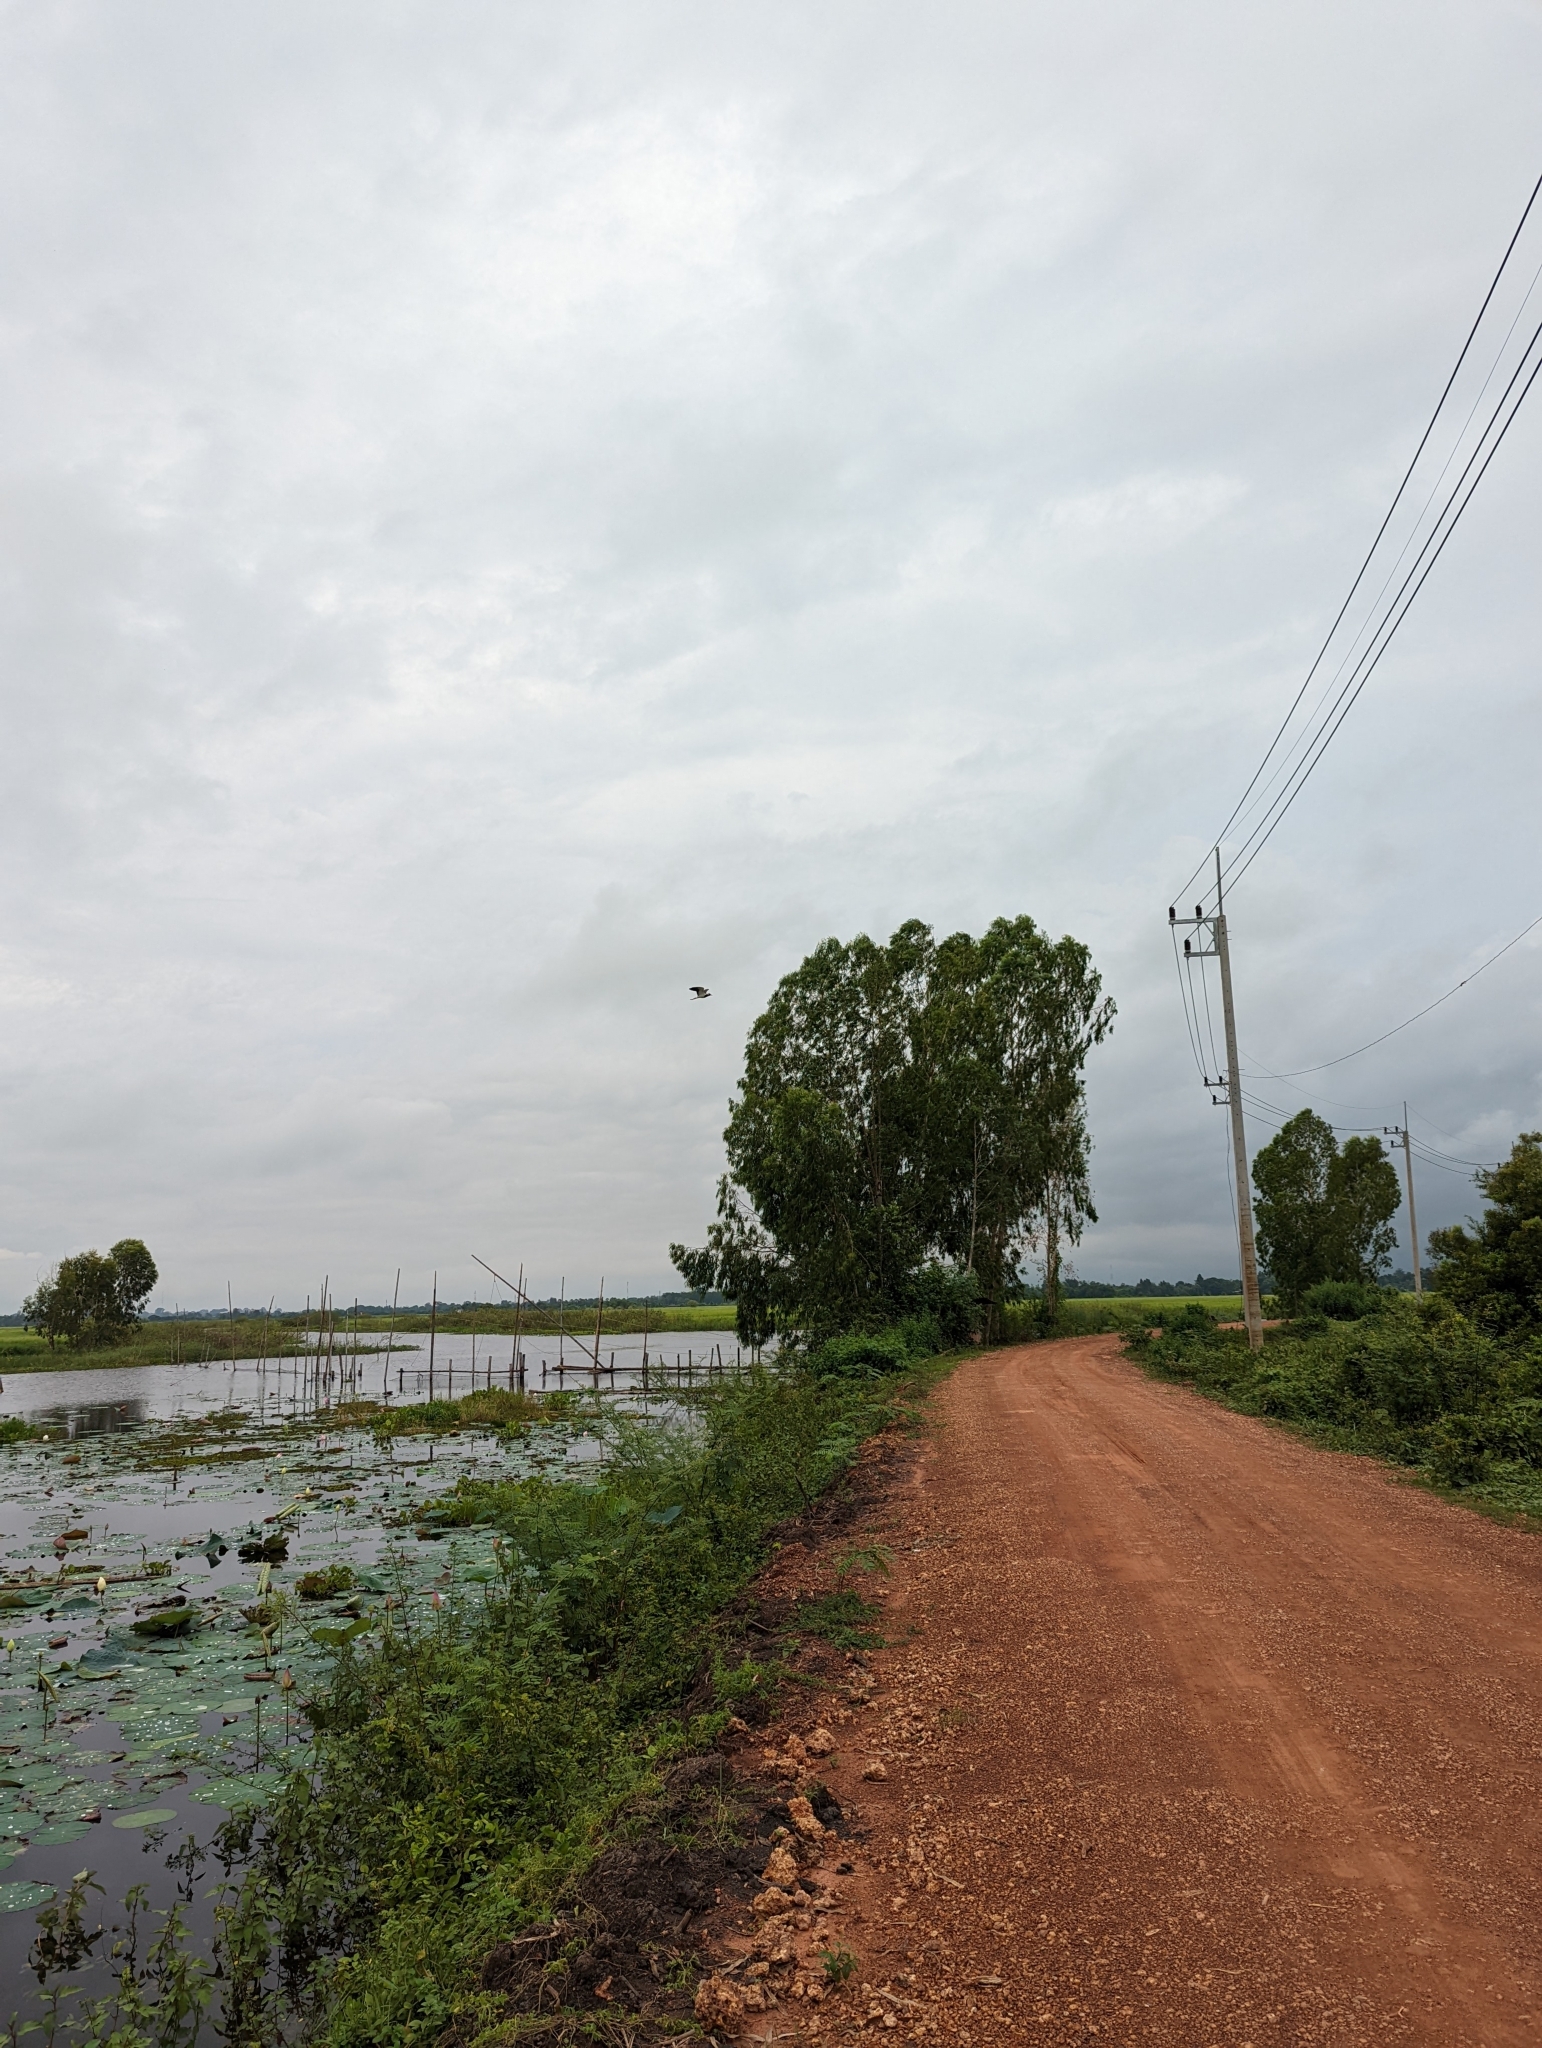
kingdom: Animalia
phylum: Chordata
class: Aves
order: Charadriiformes
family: Charadriidae
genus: Vanellus
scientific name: Vanellus indicus
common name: Red-wattled lapwing
